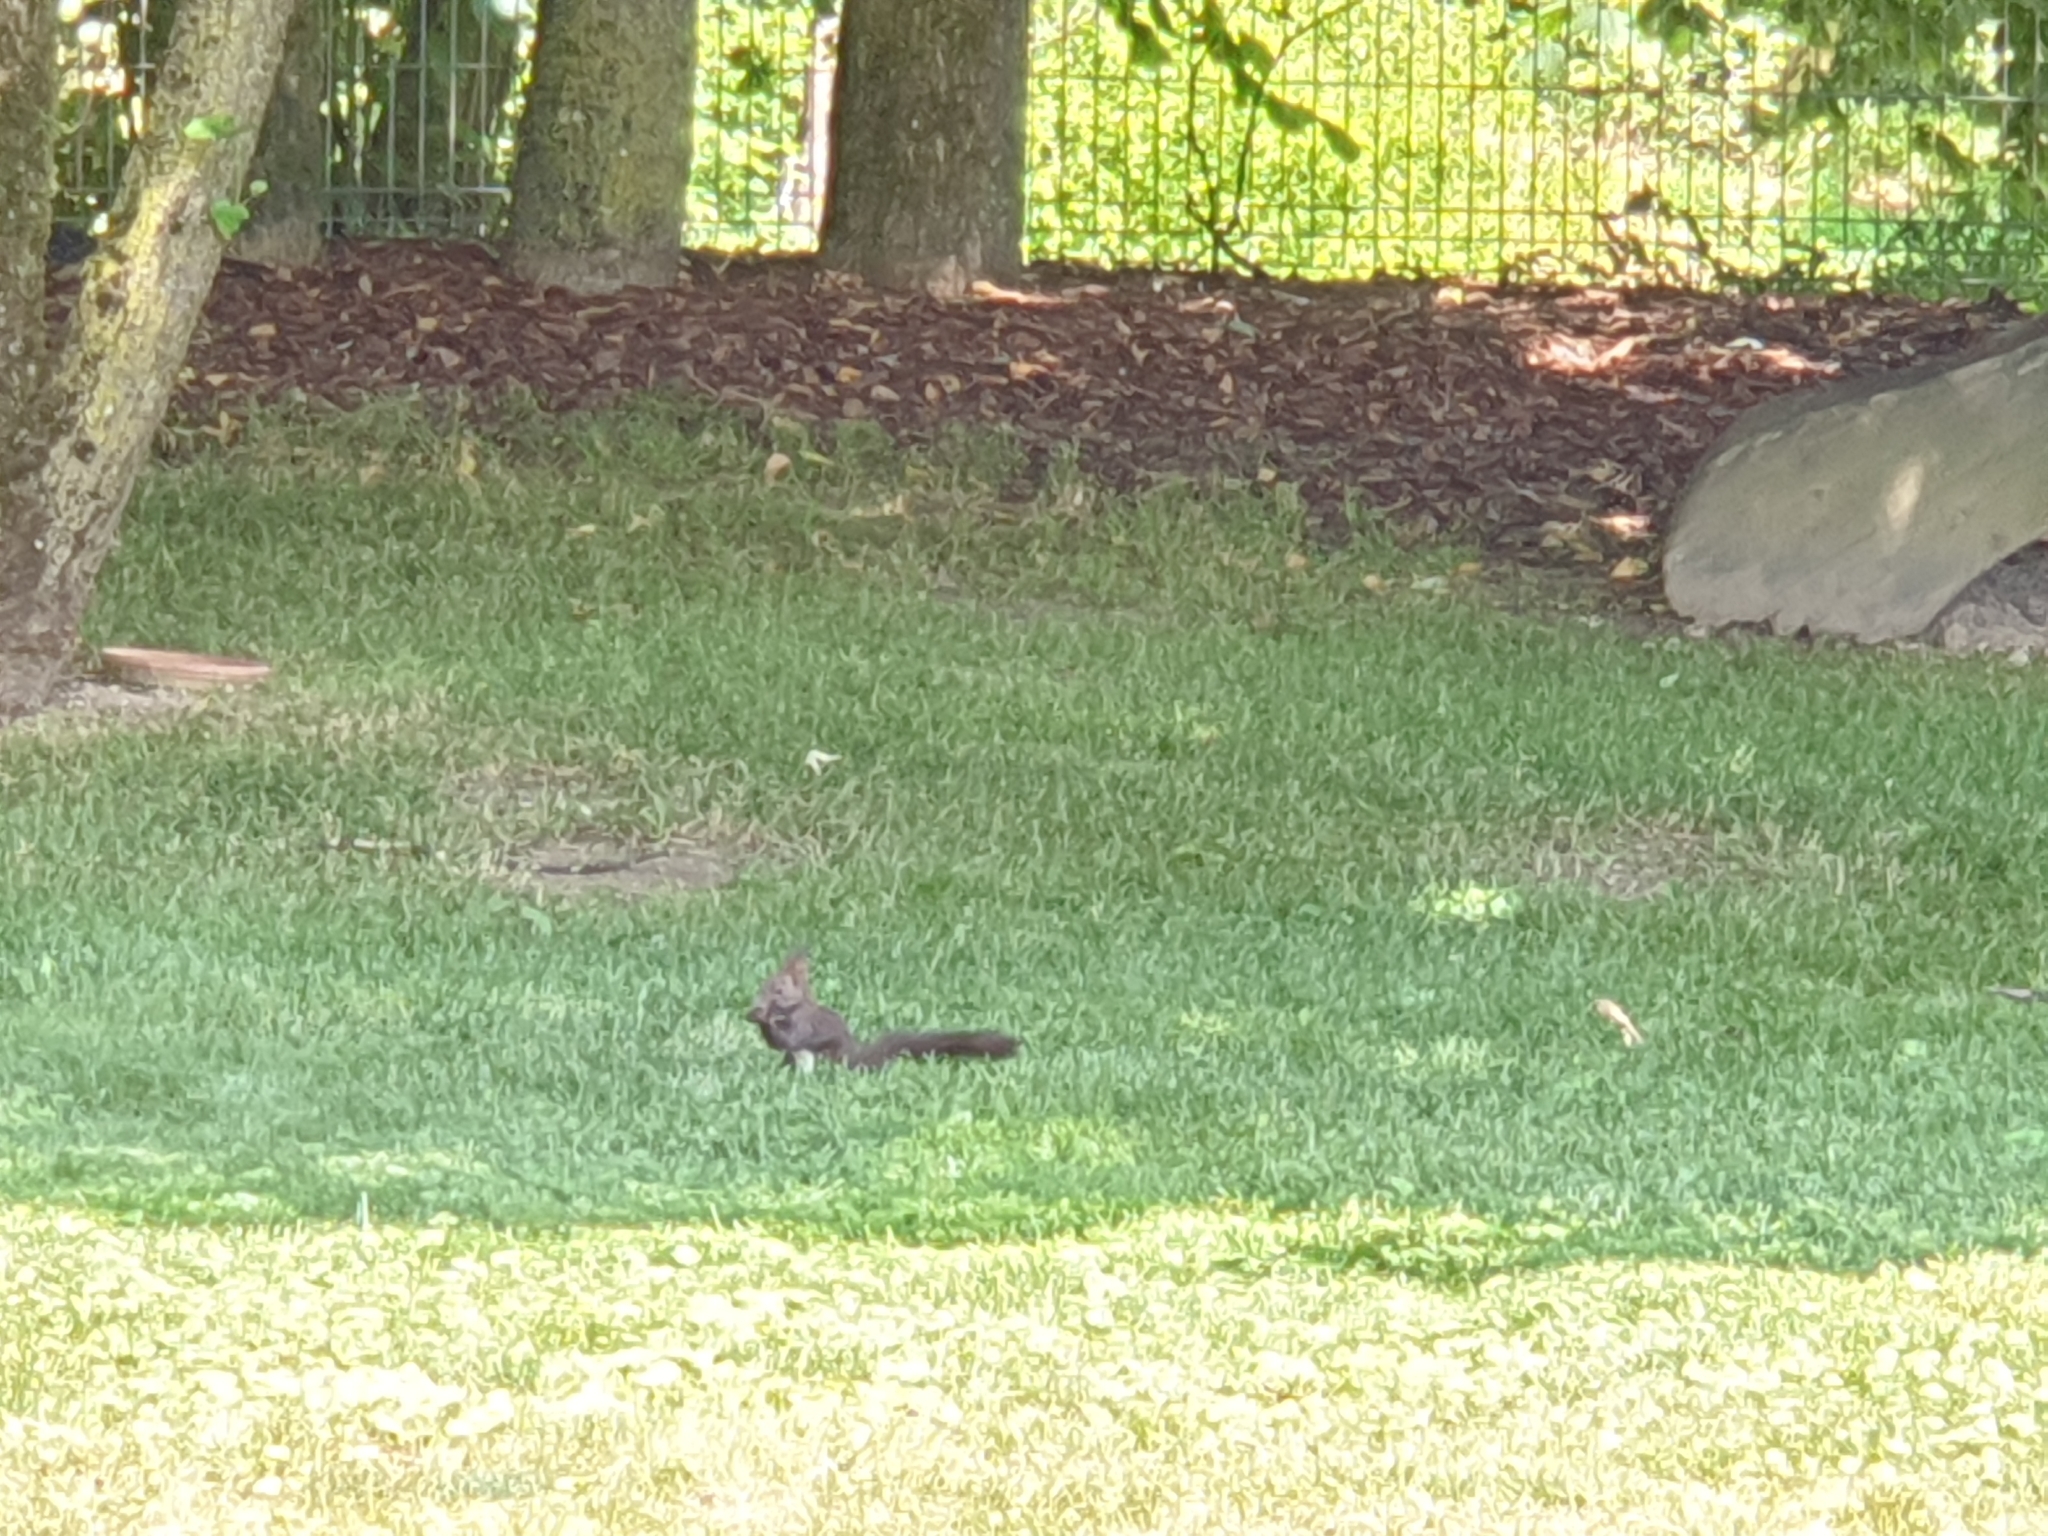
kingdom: Animalia
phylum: Chordata
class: Mammalia
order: Rodentia
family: Sciuridae
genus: Sciurus
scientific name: Sciurus vulgaris
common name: Eurasian red squirrel
